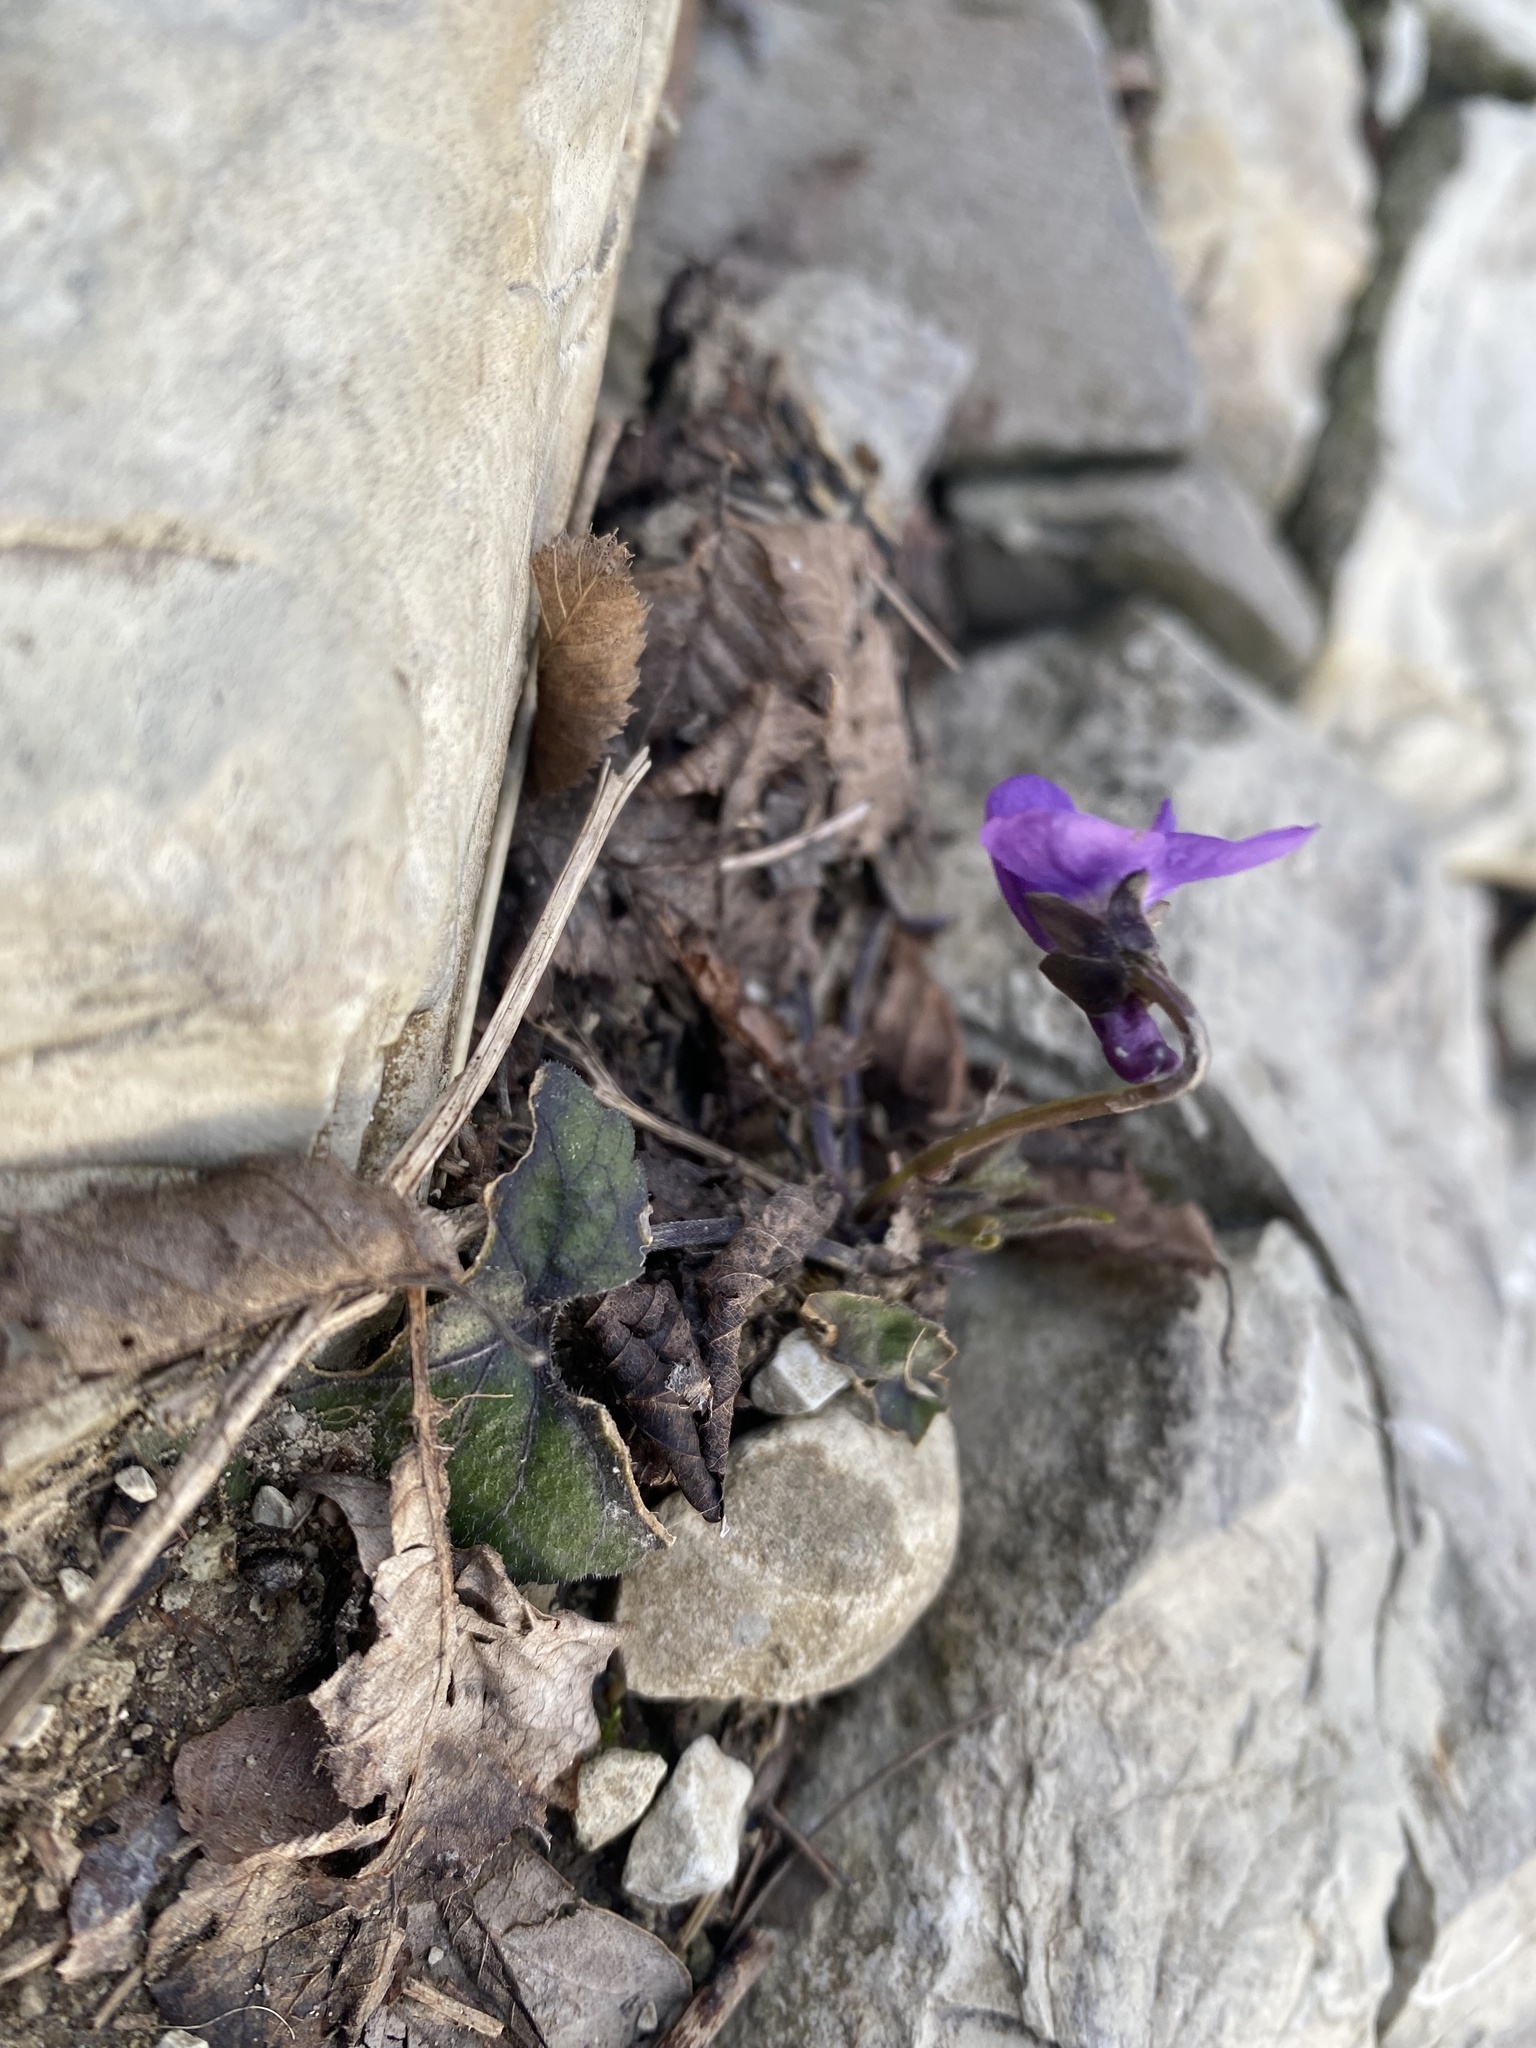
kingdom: Plantae
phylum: Tracheophyta
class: Magnoliopsida
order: Malpighiales
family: Violaceae
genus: Viola
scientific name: Viola alba
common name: White violet
